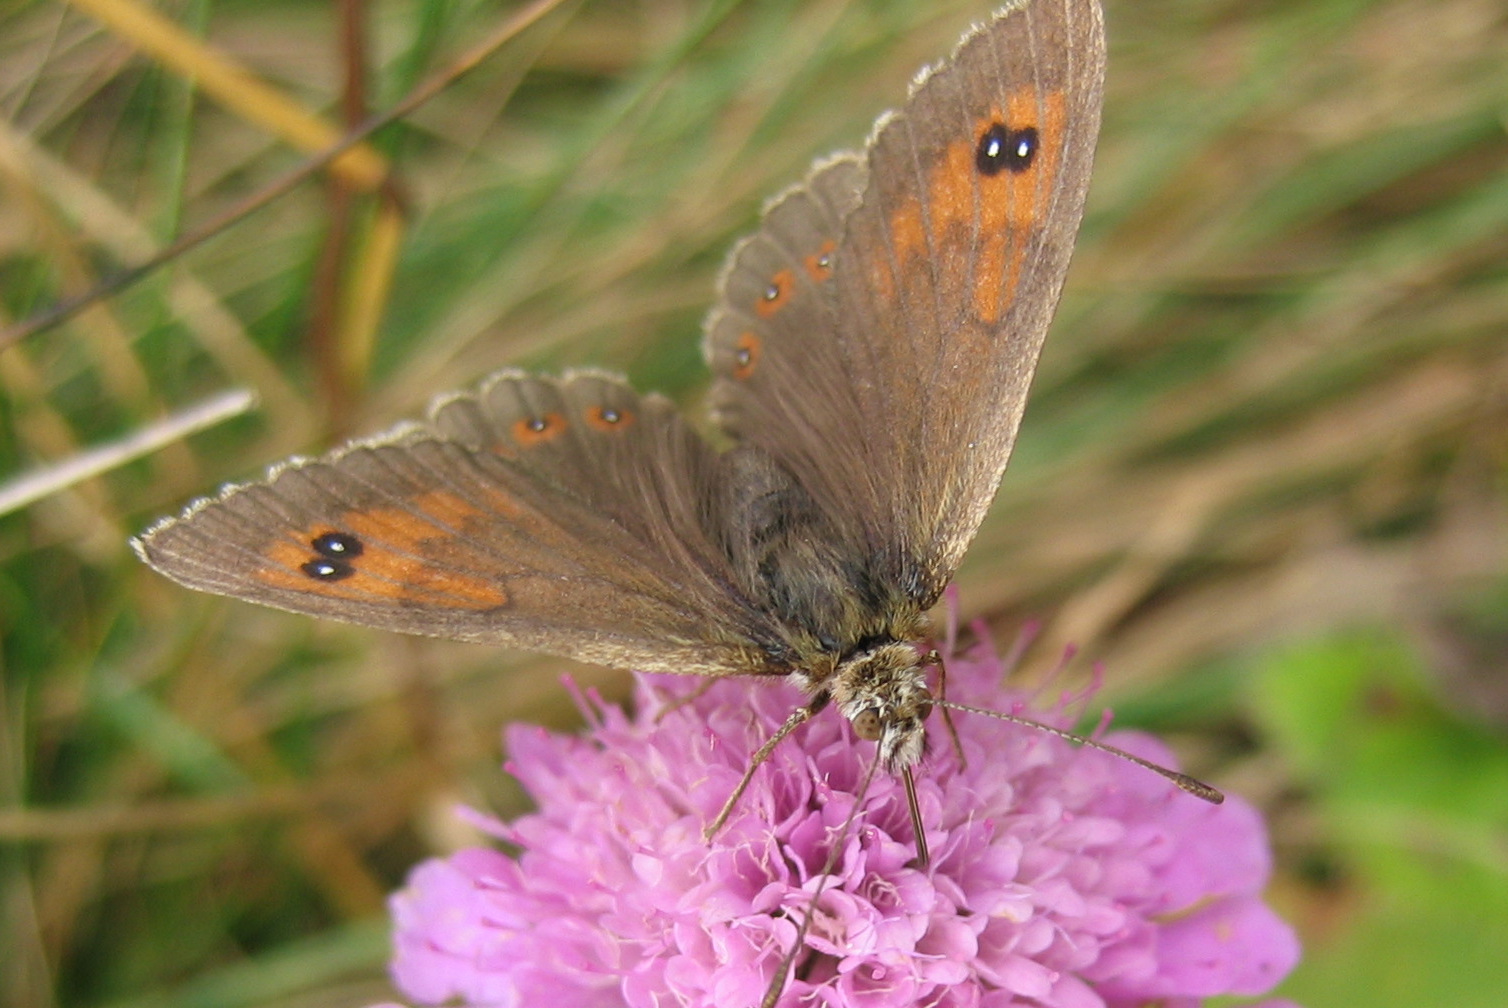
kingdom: Animalia
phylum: Arthropoda
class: Insecta
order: Lepidoptera
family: Nymphalidae
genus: Erebia
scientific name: Erebia cassioides
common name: Common brassy ringlet
